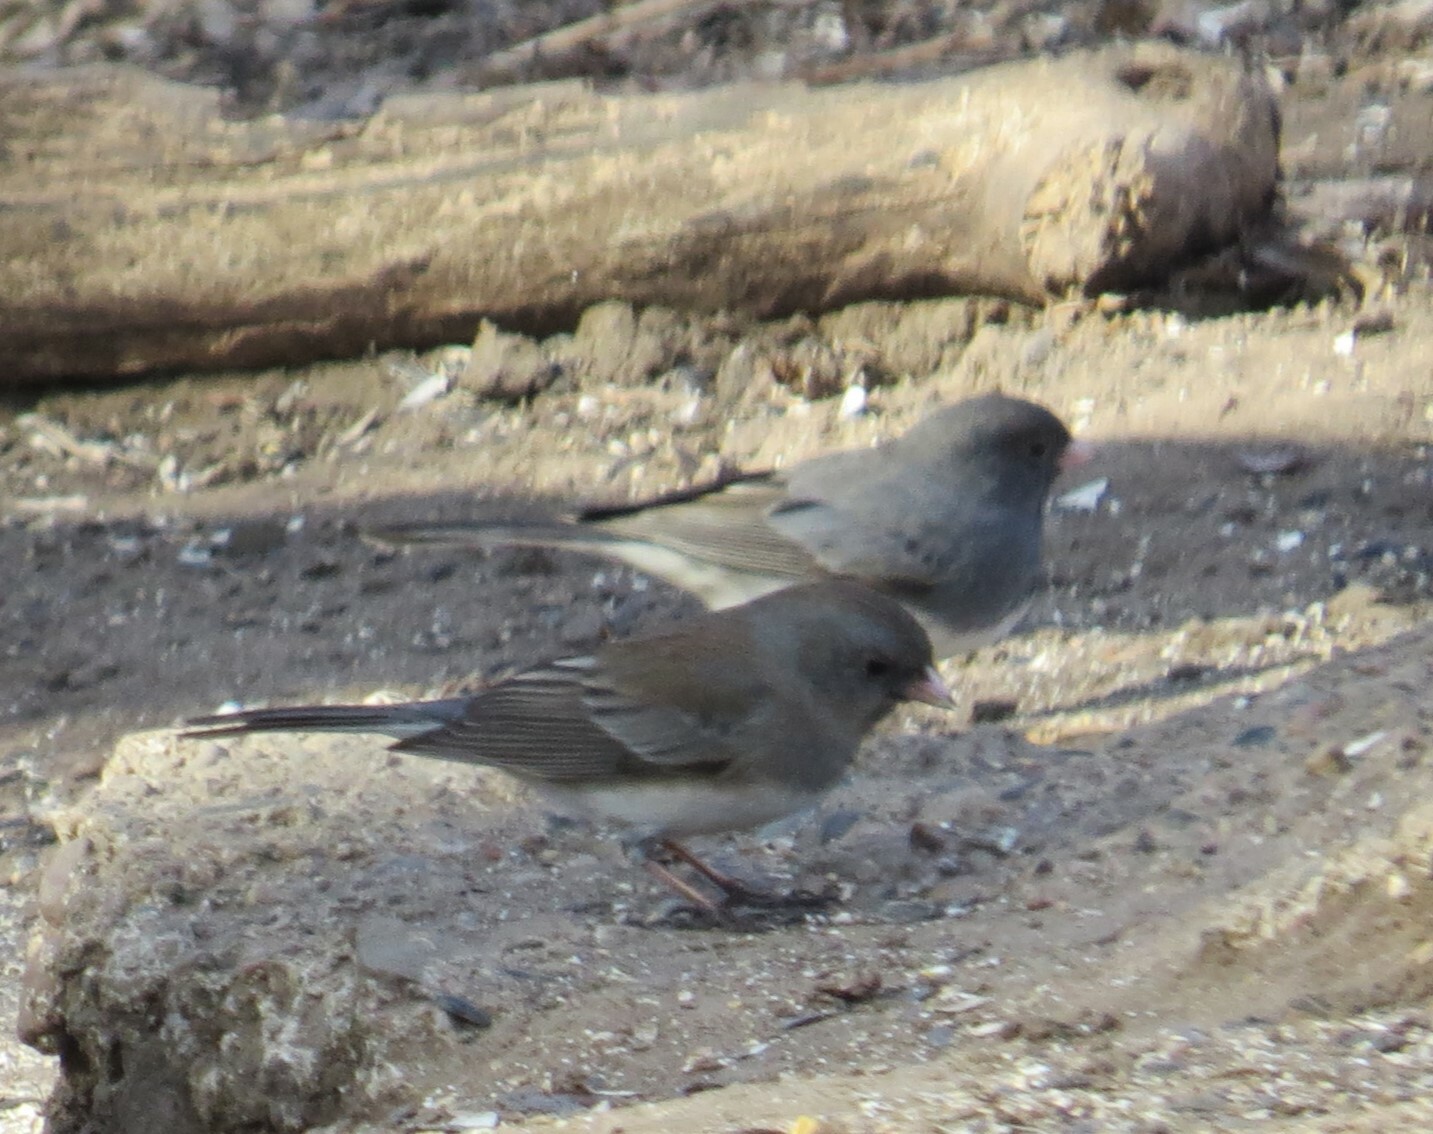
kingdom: Animalia
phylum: Chordata
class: Aves
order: Passeriformes
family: Passerellidae
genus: Junco
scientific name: Junco hyemalis
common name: Dark-eyed junco
